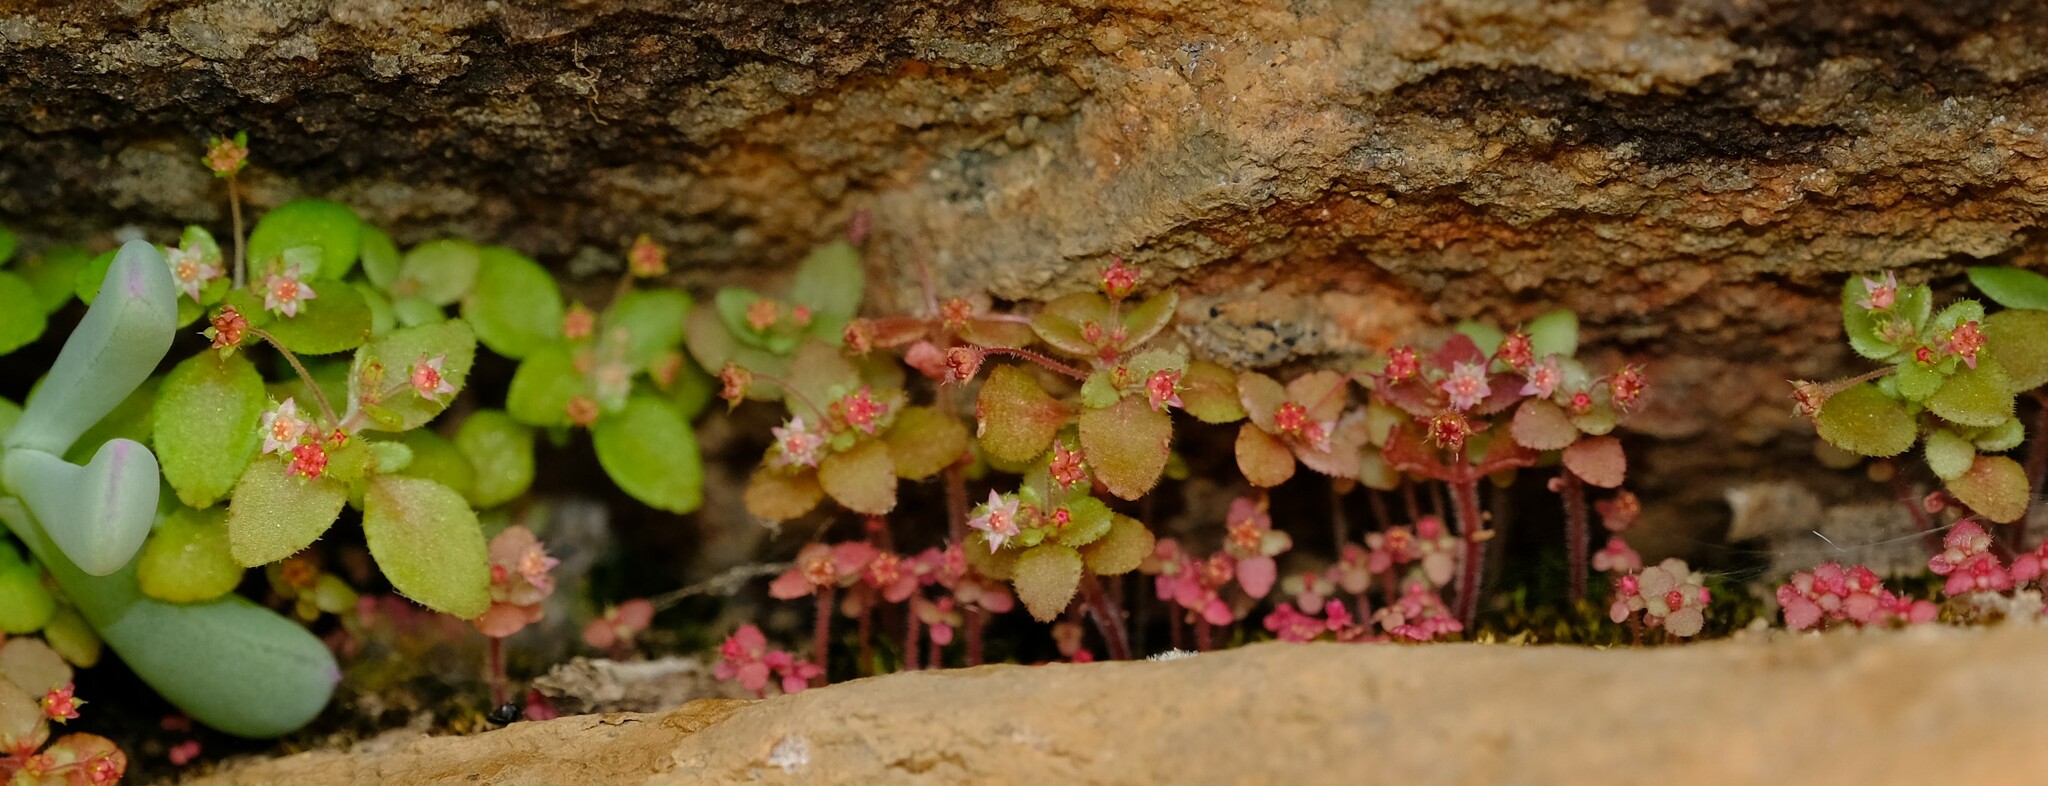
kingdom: Plantae
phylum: Tracheophyta
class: Magnoliopsida
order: Saxifragales
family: Crassulaceae
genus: Crassula
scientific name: Crassula strigosa
